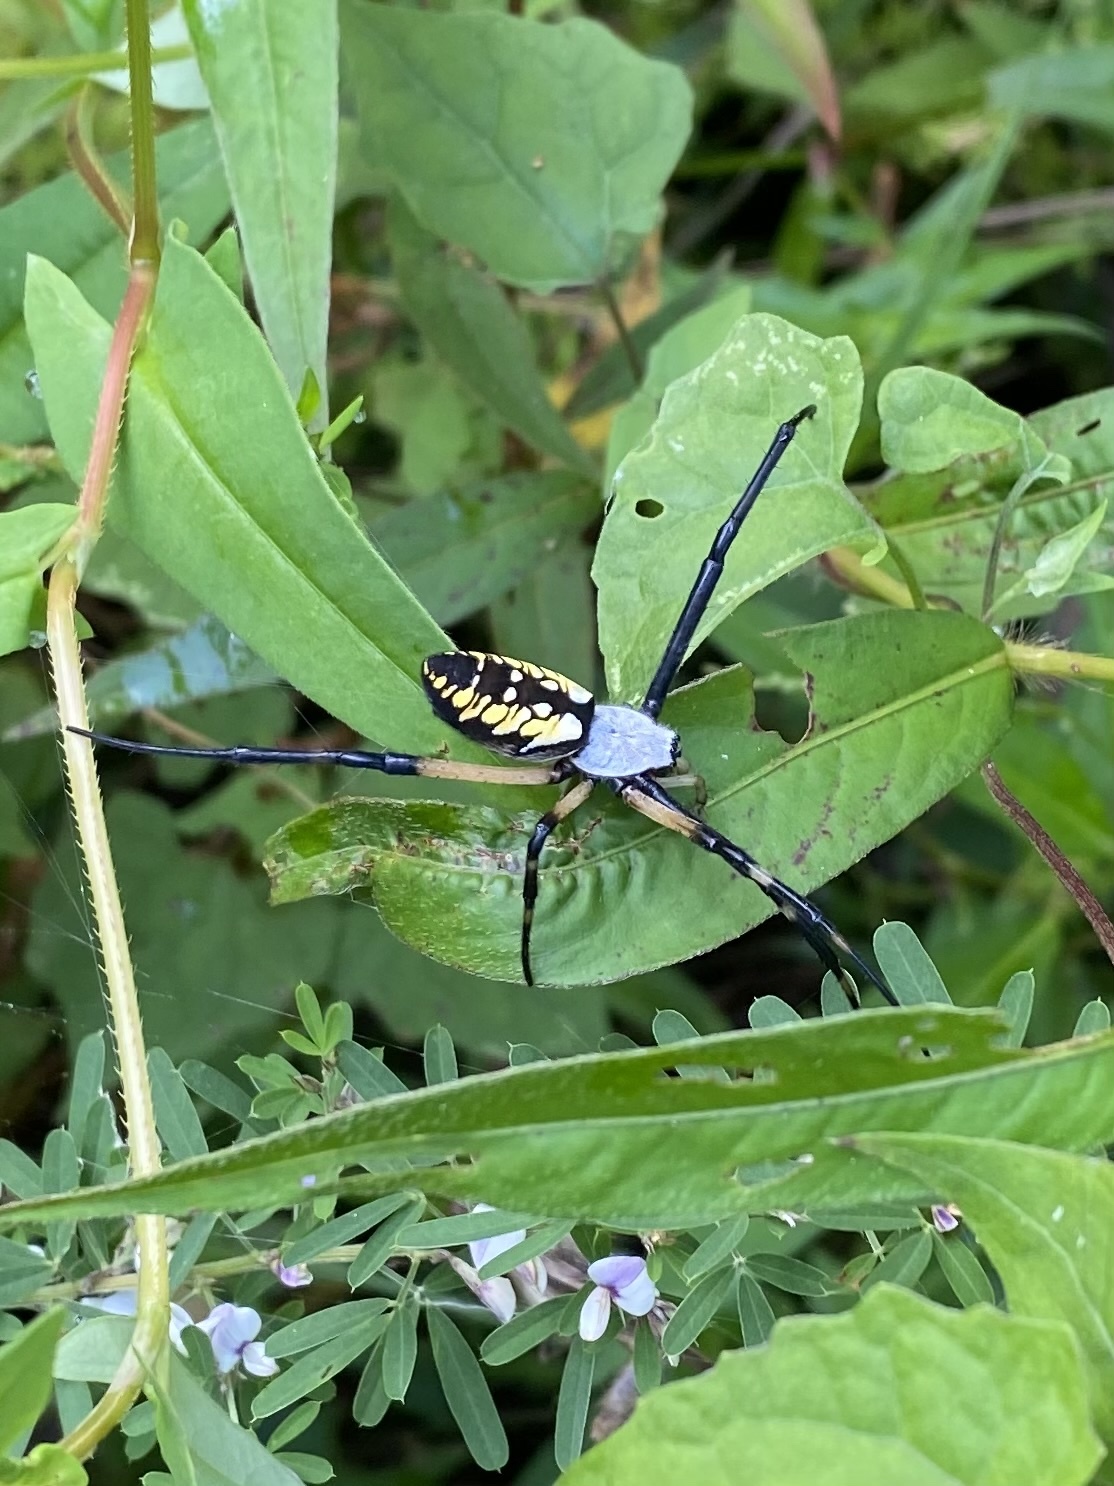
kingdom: Animalia
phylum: Arthropoda
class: Arachnida
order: Araneae
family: Araneidae
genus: Argiope
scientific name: Argiope aurantia
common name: Orb weavers
